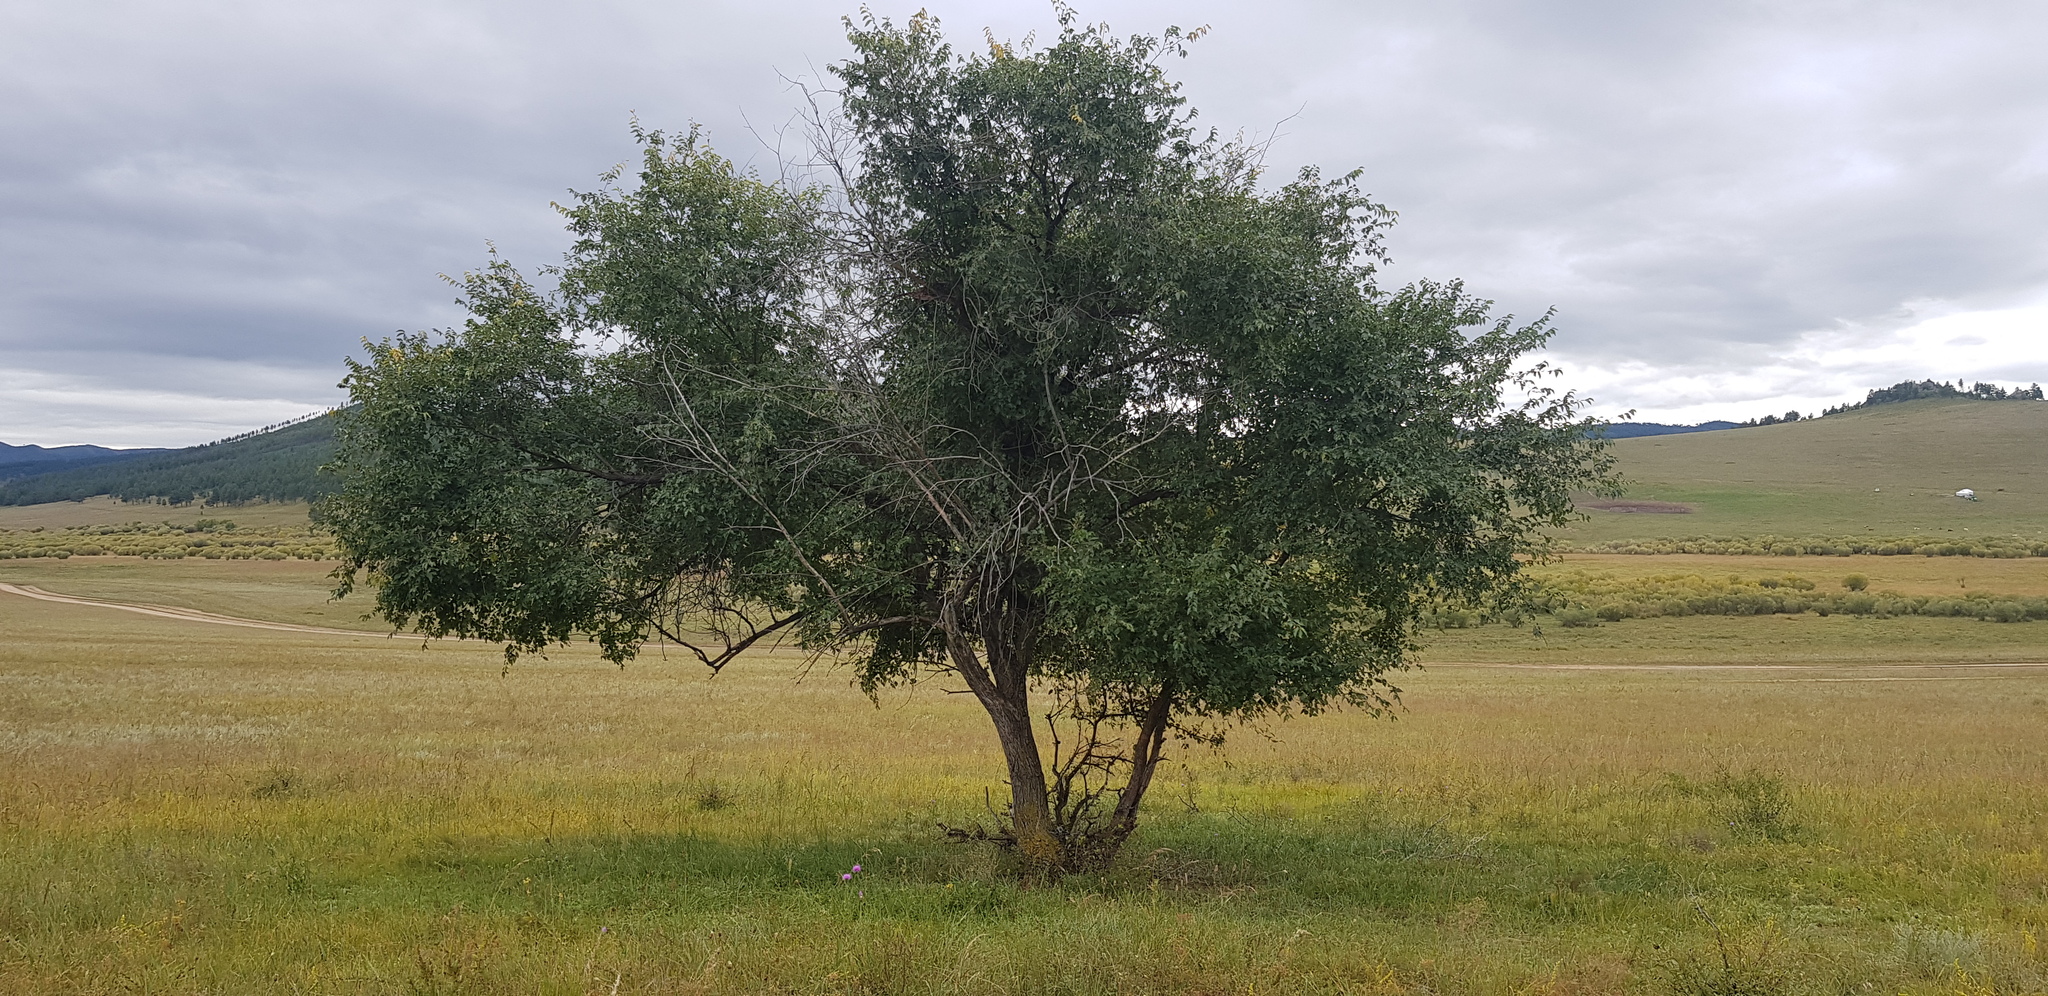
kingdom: Plantae
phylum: Tracheophyta
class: Magnoliopsida
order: Rosales
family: Ulmaceae
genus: Ulmus
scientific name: Ulmus macrocarpa
